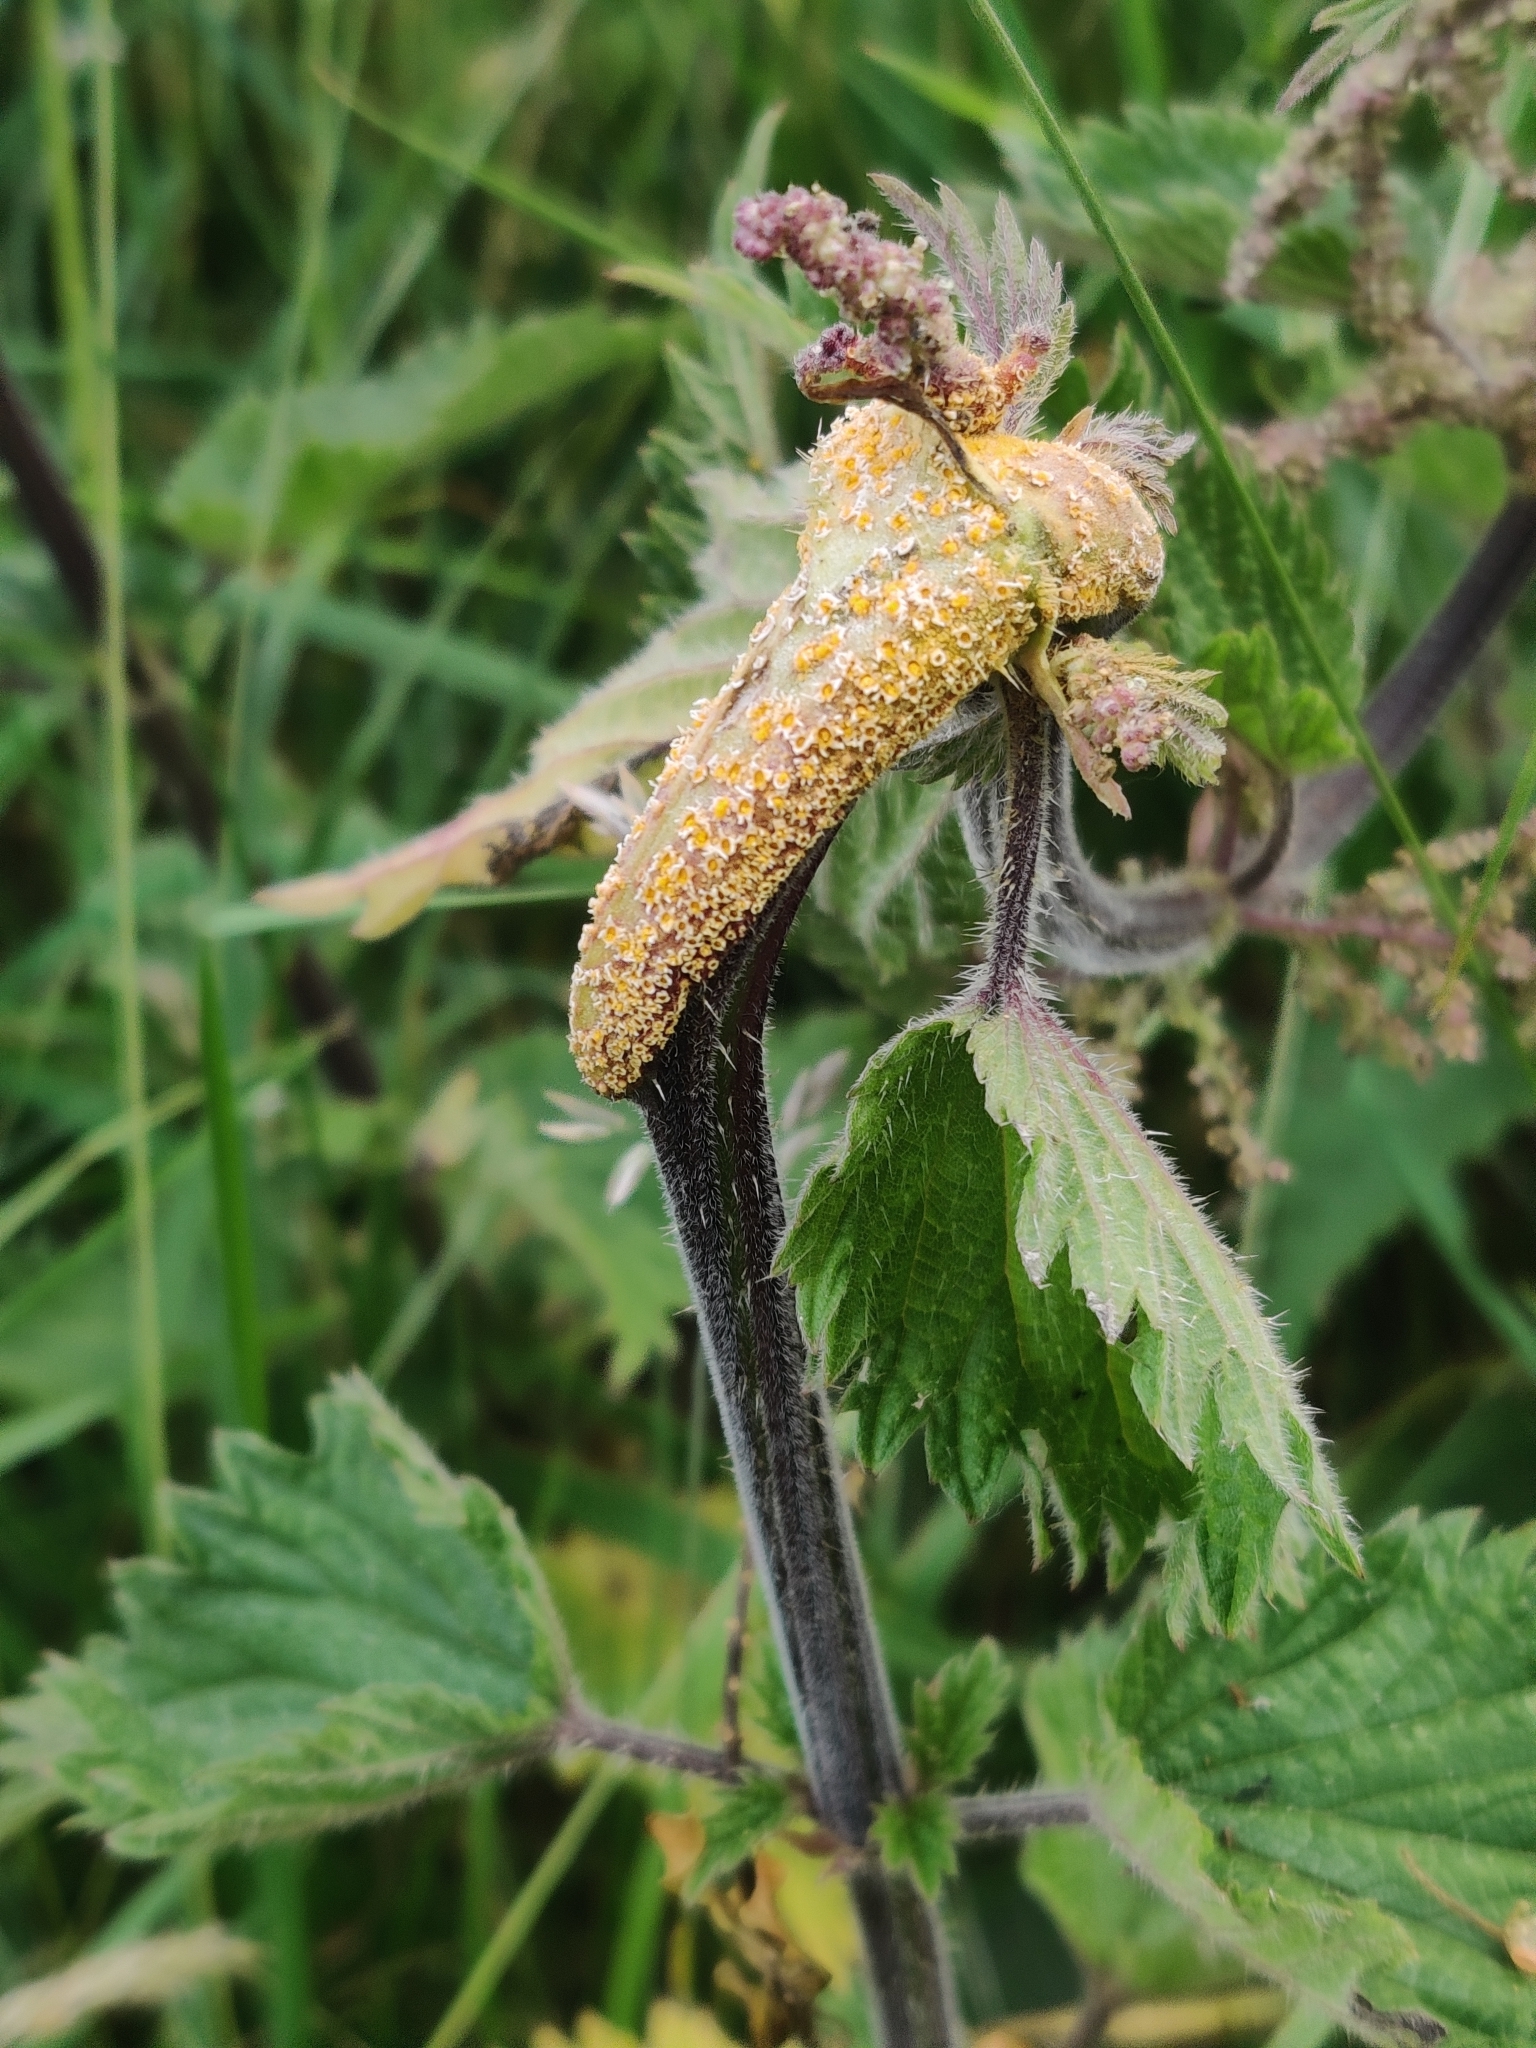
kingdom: Fungi
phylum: Basidiomycota
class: Pucciniomycetes
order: Pucciniales
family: Pucciniaceae
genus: Puccinia
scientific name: Puccinia urticata
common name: Nettle clustercup rust fungus
